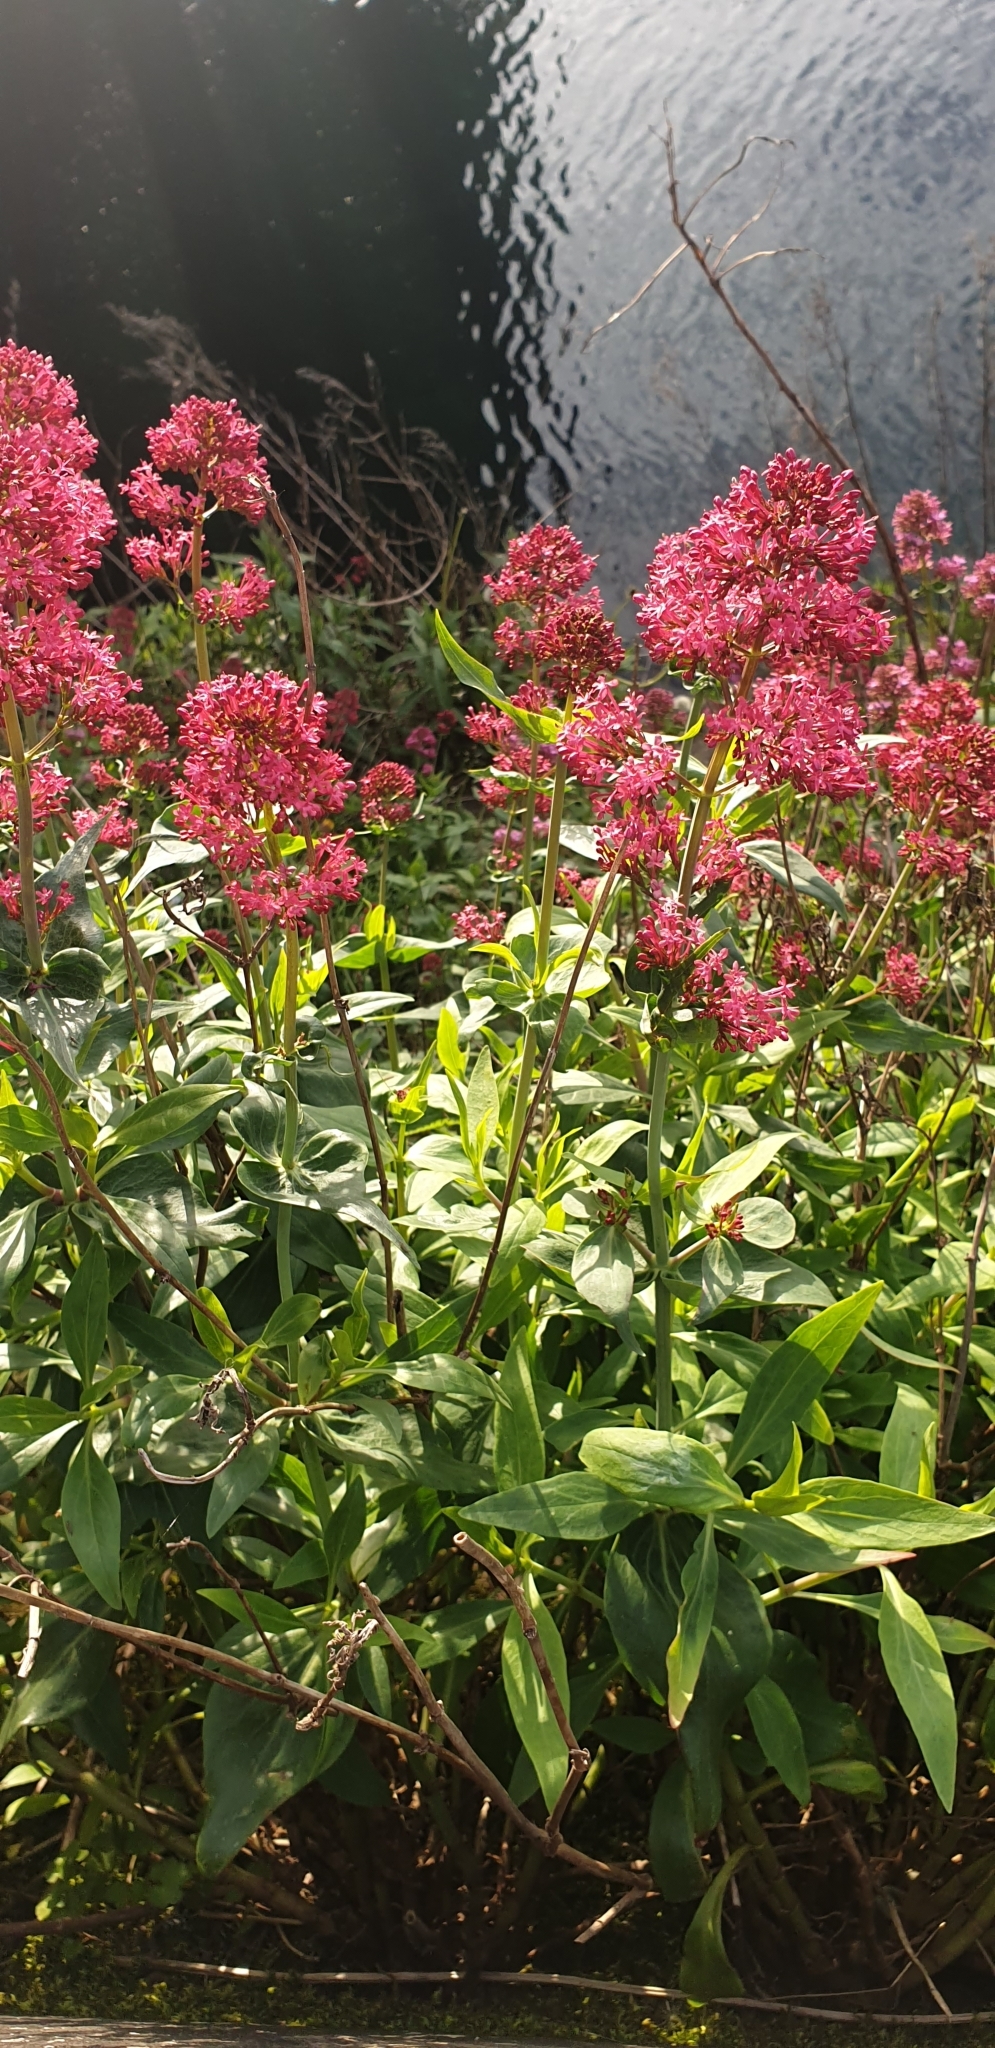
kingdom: Plantae
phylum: Tracheophyta
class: Magnoliopsida
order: Dipsacales
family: Caprifoliaceae
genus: Centranthus
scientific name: Centranthus ruber
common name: Red valerian
